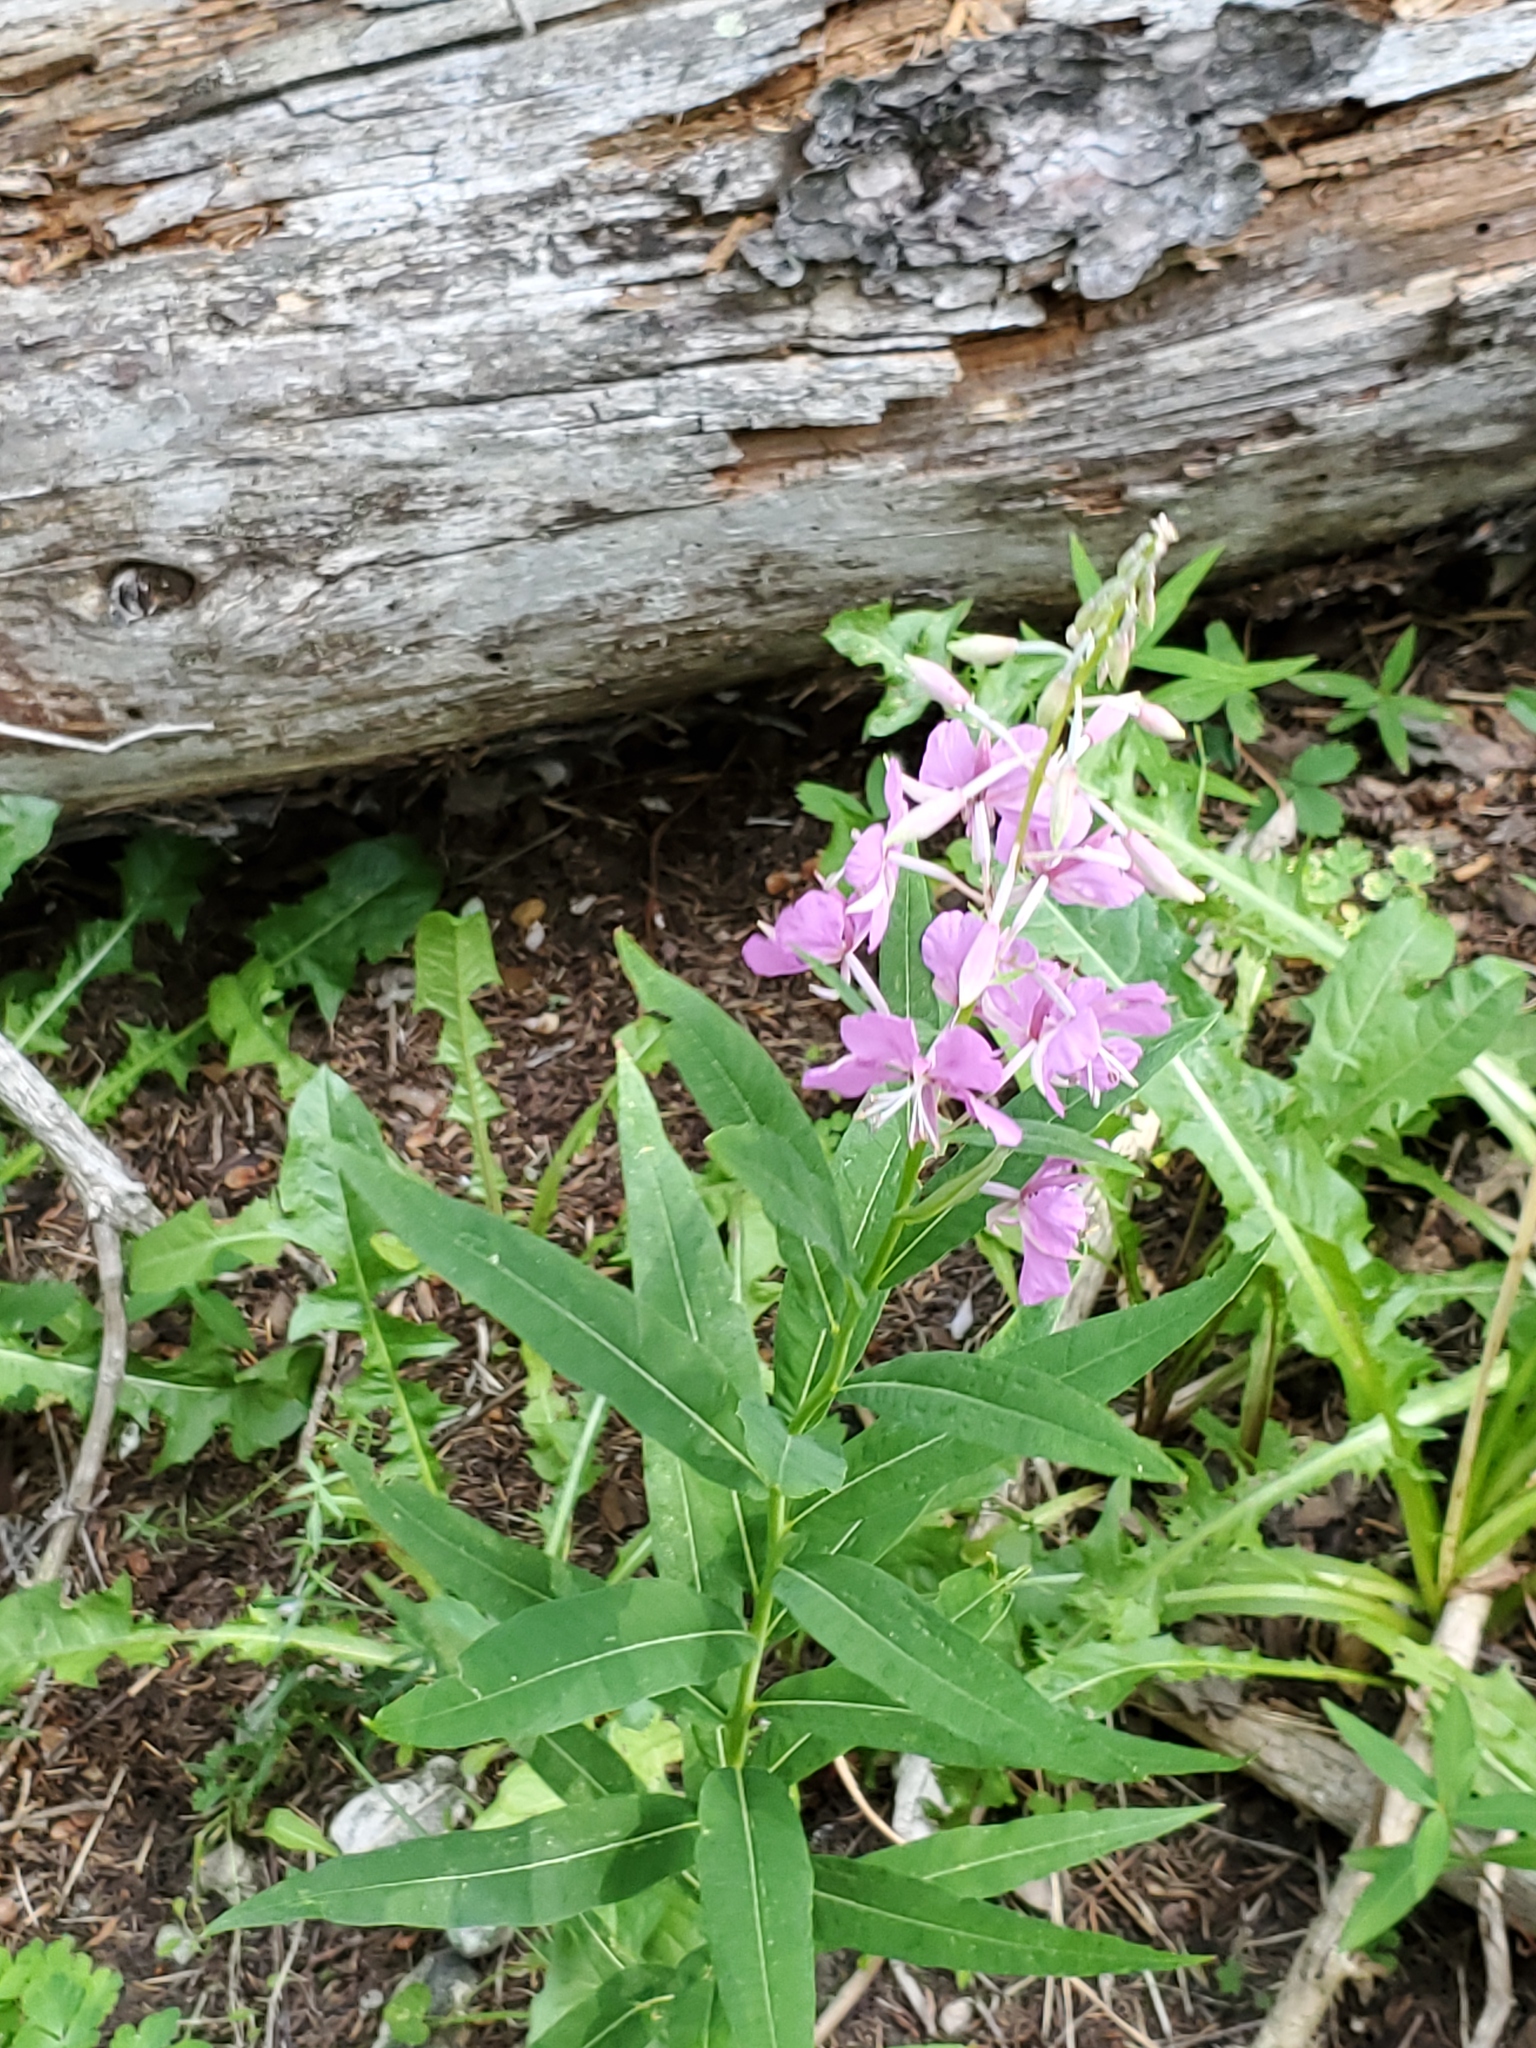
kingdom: Plantae
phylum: Tracheophyta
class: Magnoliopsida
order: Myrtales
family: Onagraceae
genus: Chamaenerion
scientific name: Chamaenerion angustifolium
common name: Fireweed
